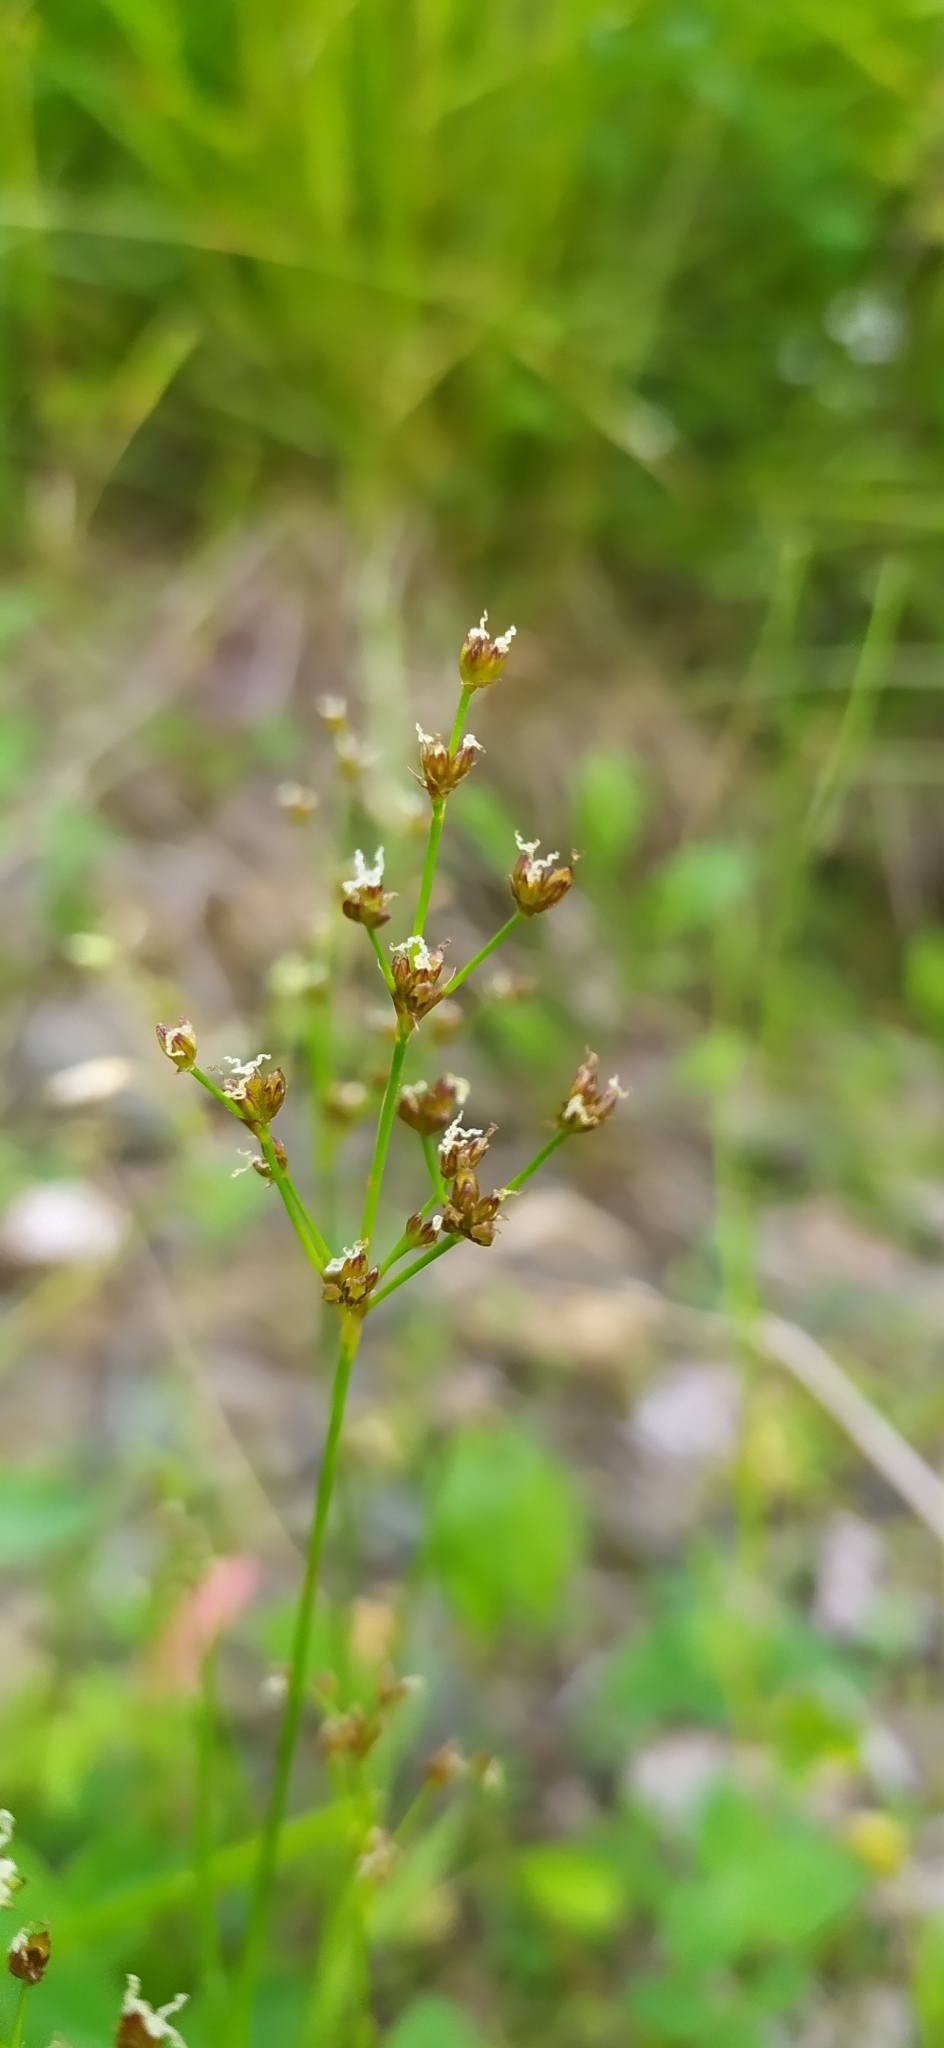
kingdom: Plantae
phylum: Tracheophyta
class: Liliopsida
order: Poales
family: Juncaceae
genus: Juncus
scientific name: Juncus alpinoarticulatus
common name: Alpine rush
